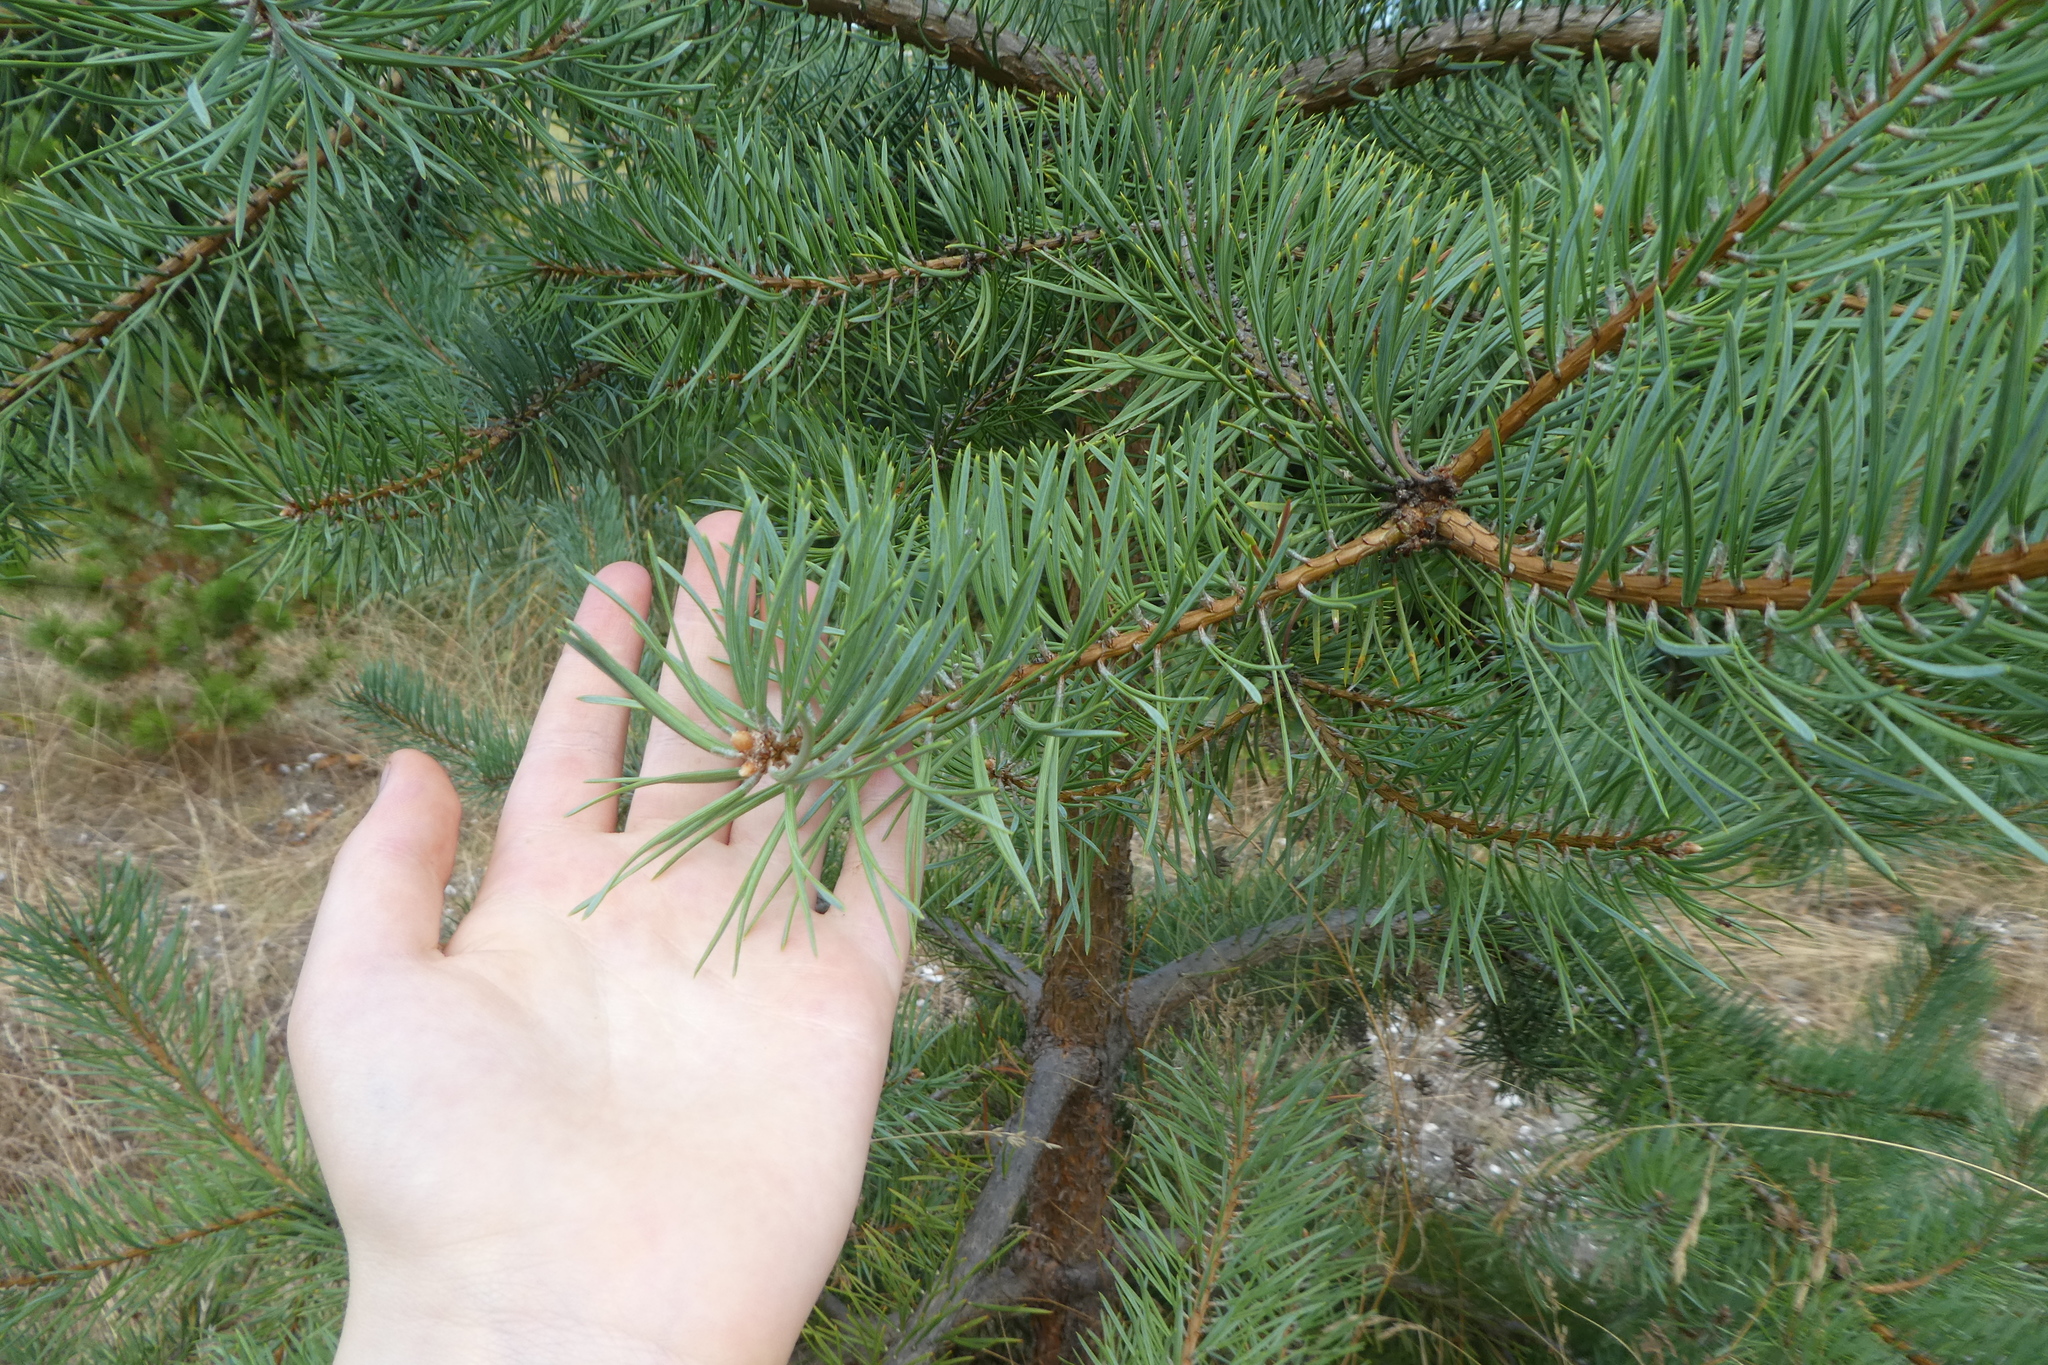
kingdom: Plantae
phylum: Tracheophyta
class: Pinopsida
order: Pinales
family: Pinaceae
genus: Pinus
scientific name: Pinus contorta
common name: Lodgepole pine
